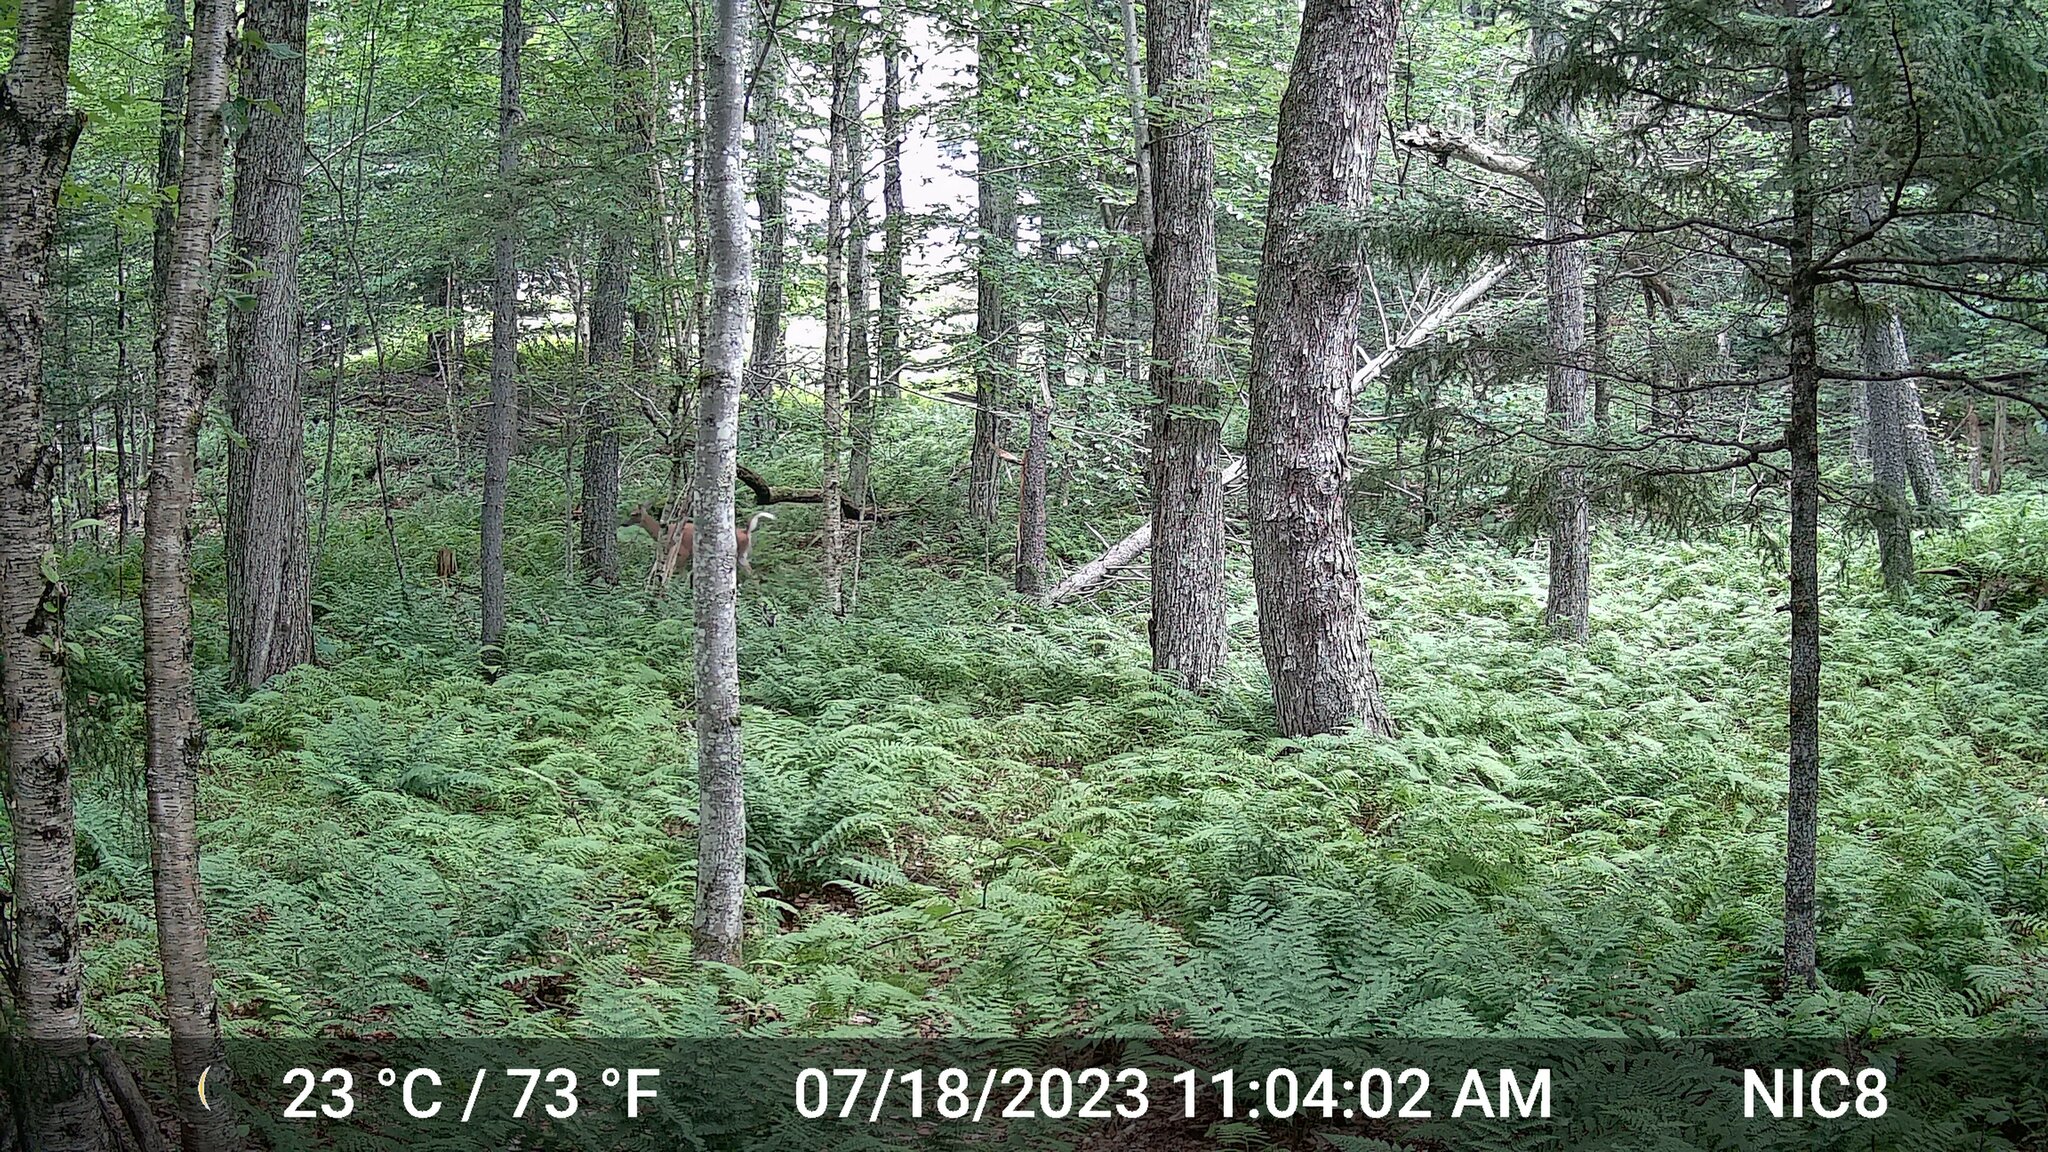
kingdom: Animalia
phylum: Chordata
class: Mammalia
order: Artiodactyla
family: Cervidae
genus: Odocoileus
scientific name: Odocoileus virginianus
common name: White-tailed deer
